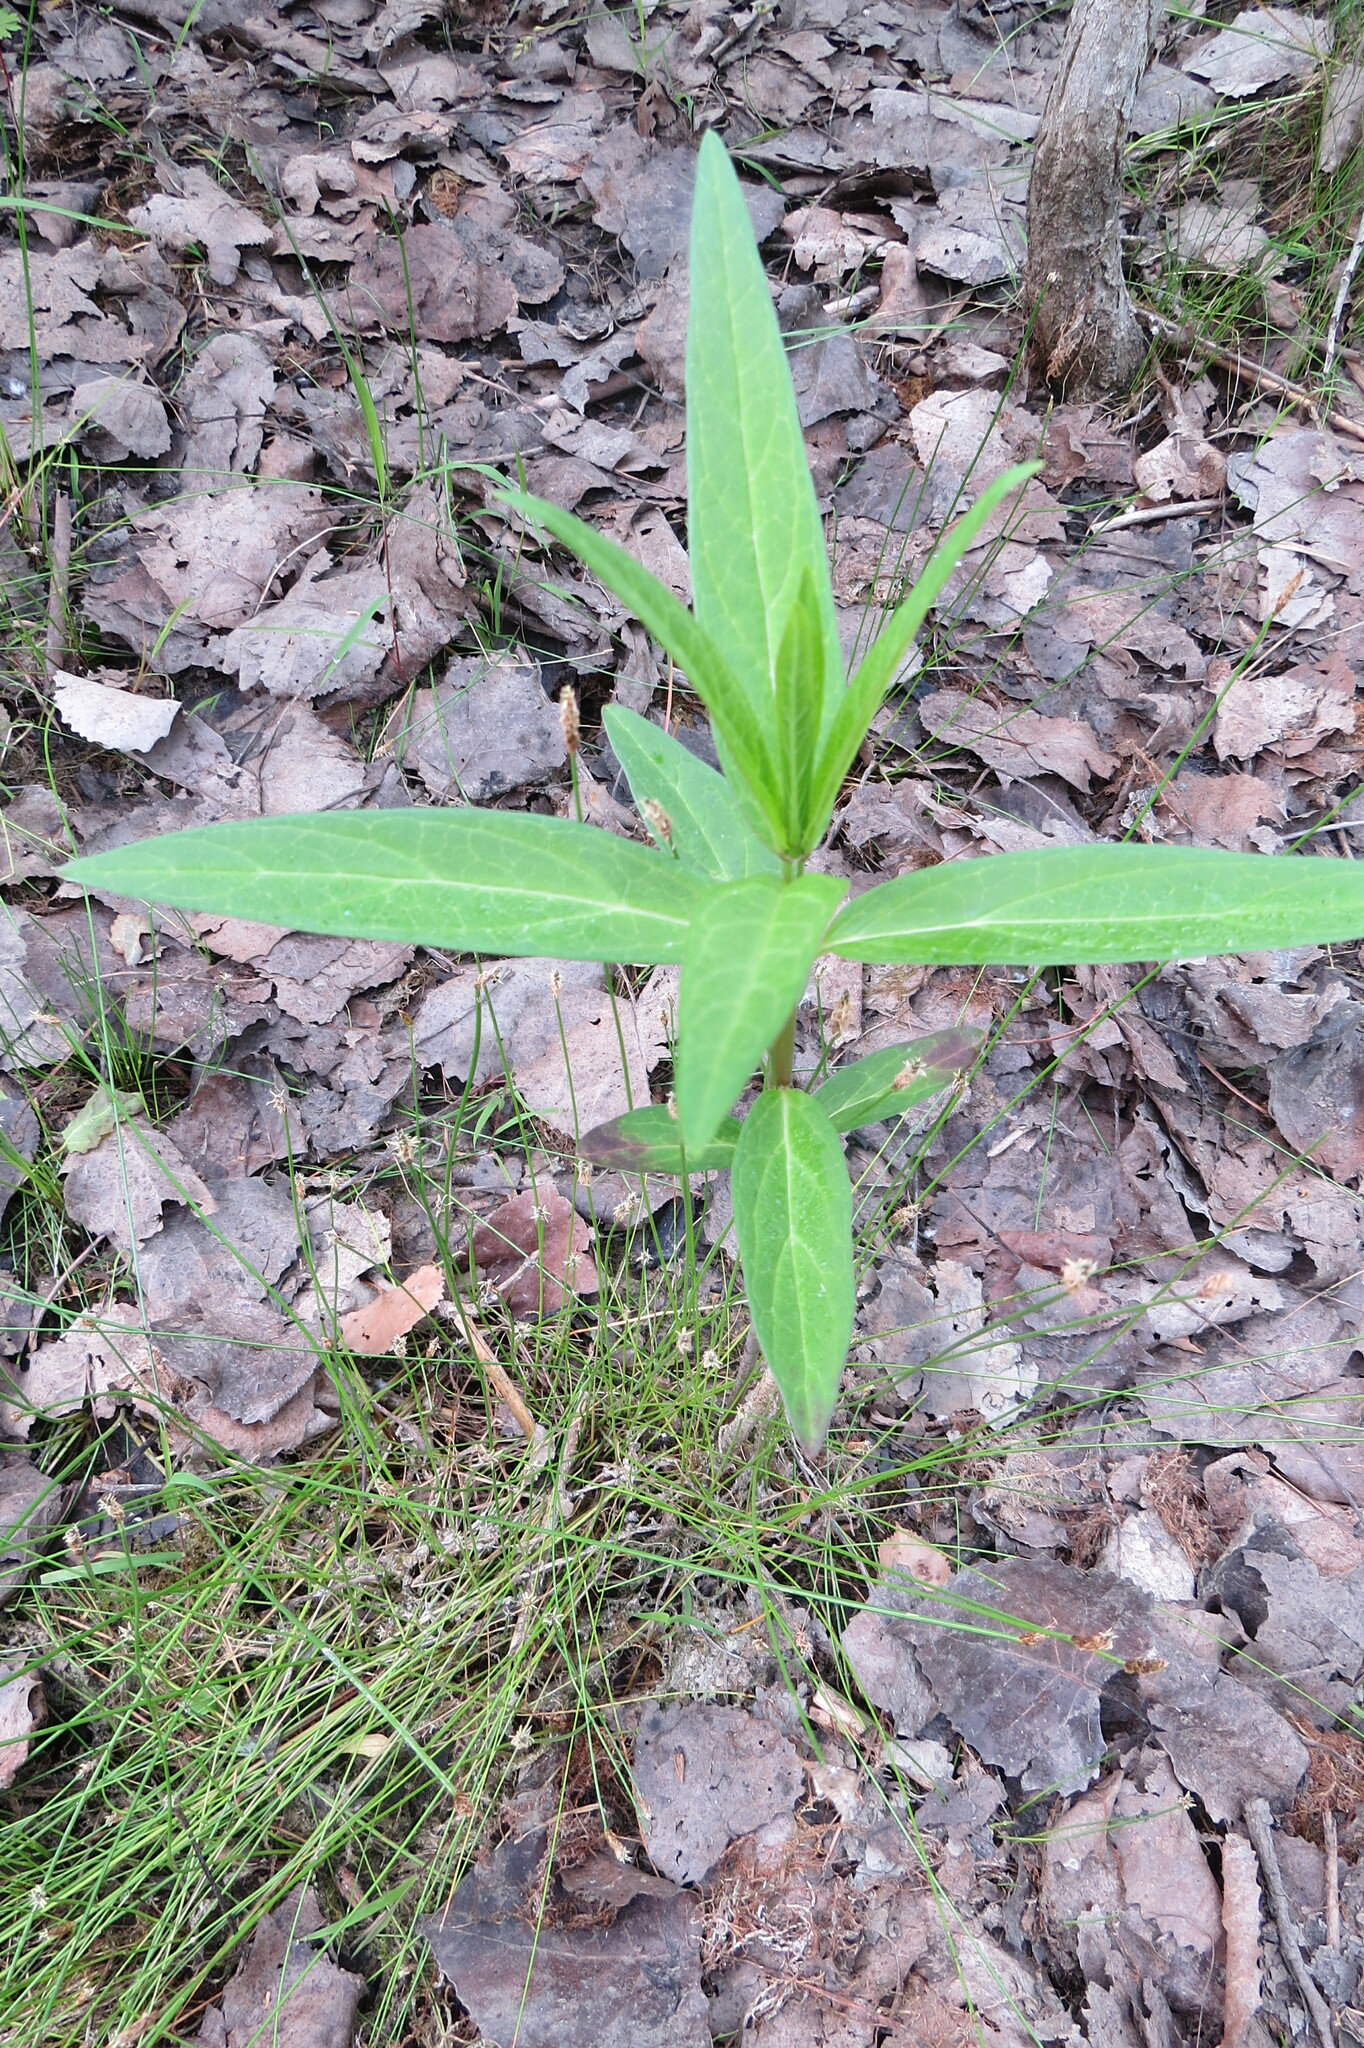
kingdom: Plantae
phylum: Tracheophyta
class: Magnoliopsida
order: Gentianales
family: Apocynaceae
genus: Asclepias
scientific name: Asclepias incarnata
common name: Swamp milkweed
